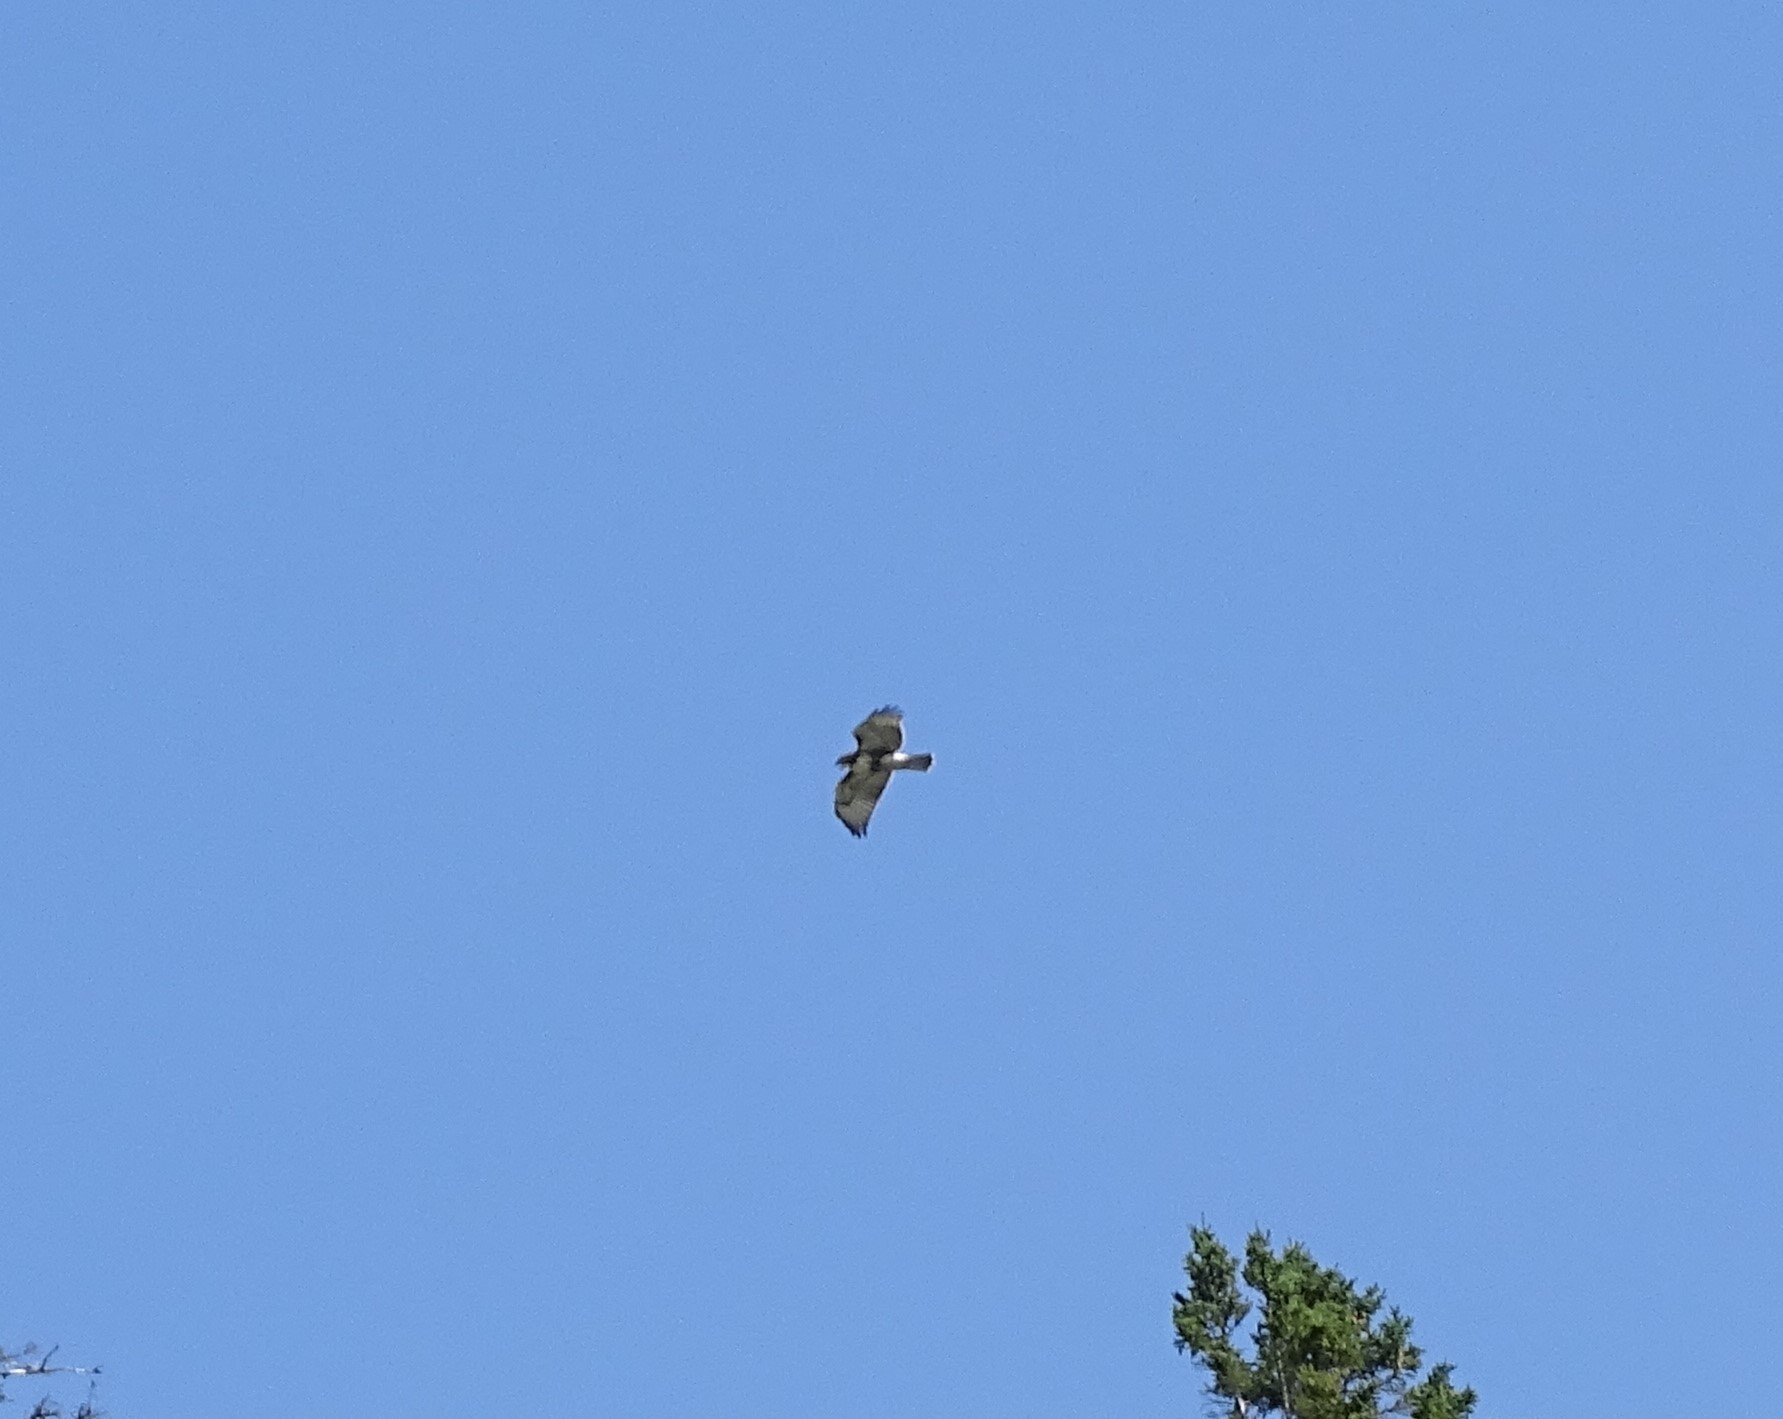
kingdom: Animalia
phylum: Chordata
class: Aves
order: Accipitriformes
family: Accipitridae
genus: Buteo
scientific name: Buteo jamaicensis
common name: Red-tailed hawk
